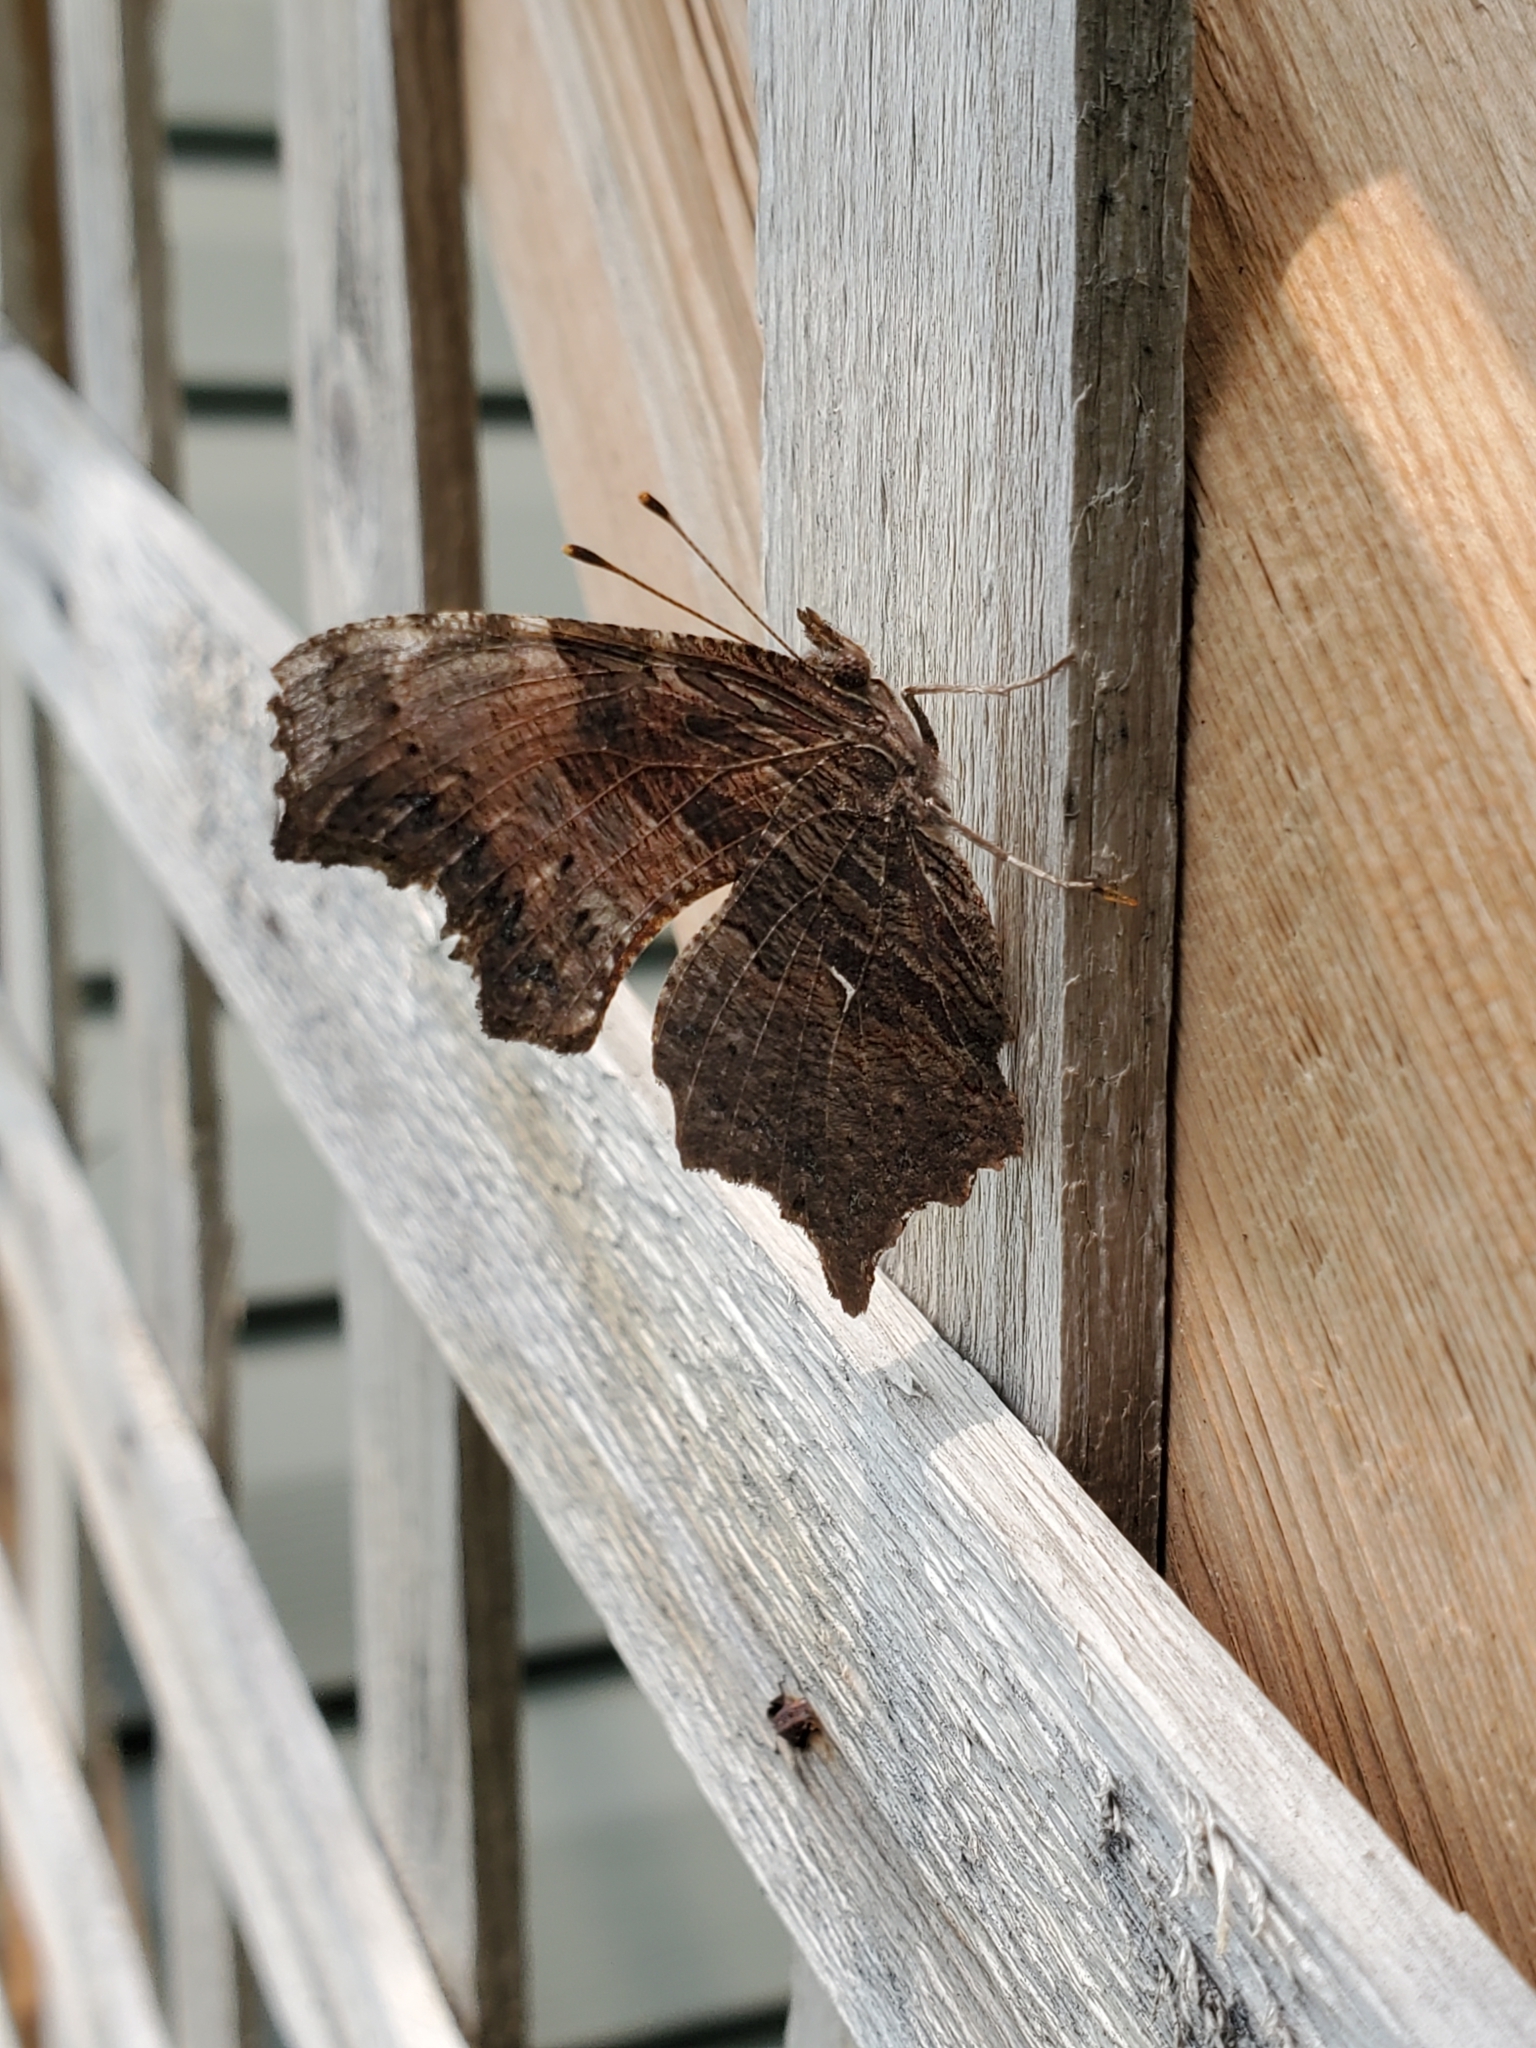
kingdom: Animalia
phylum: Arthropoda
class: Insecta
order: Lepidoptera
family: Nymphalidae
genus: Polygonia
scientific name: Polygonia progne
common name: Gray comma
